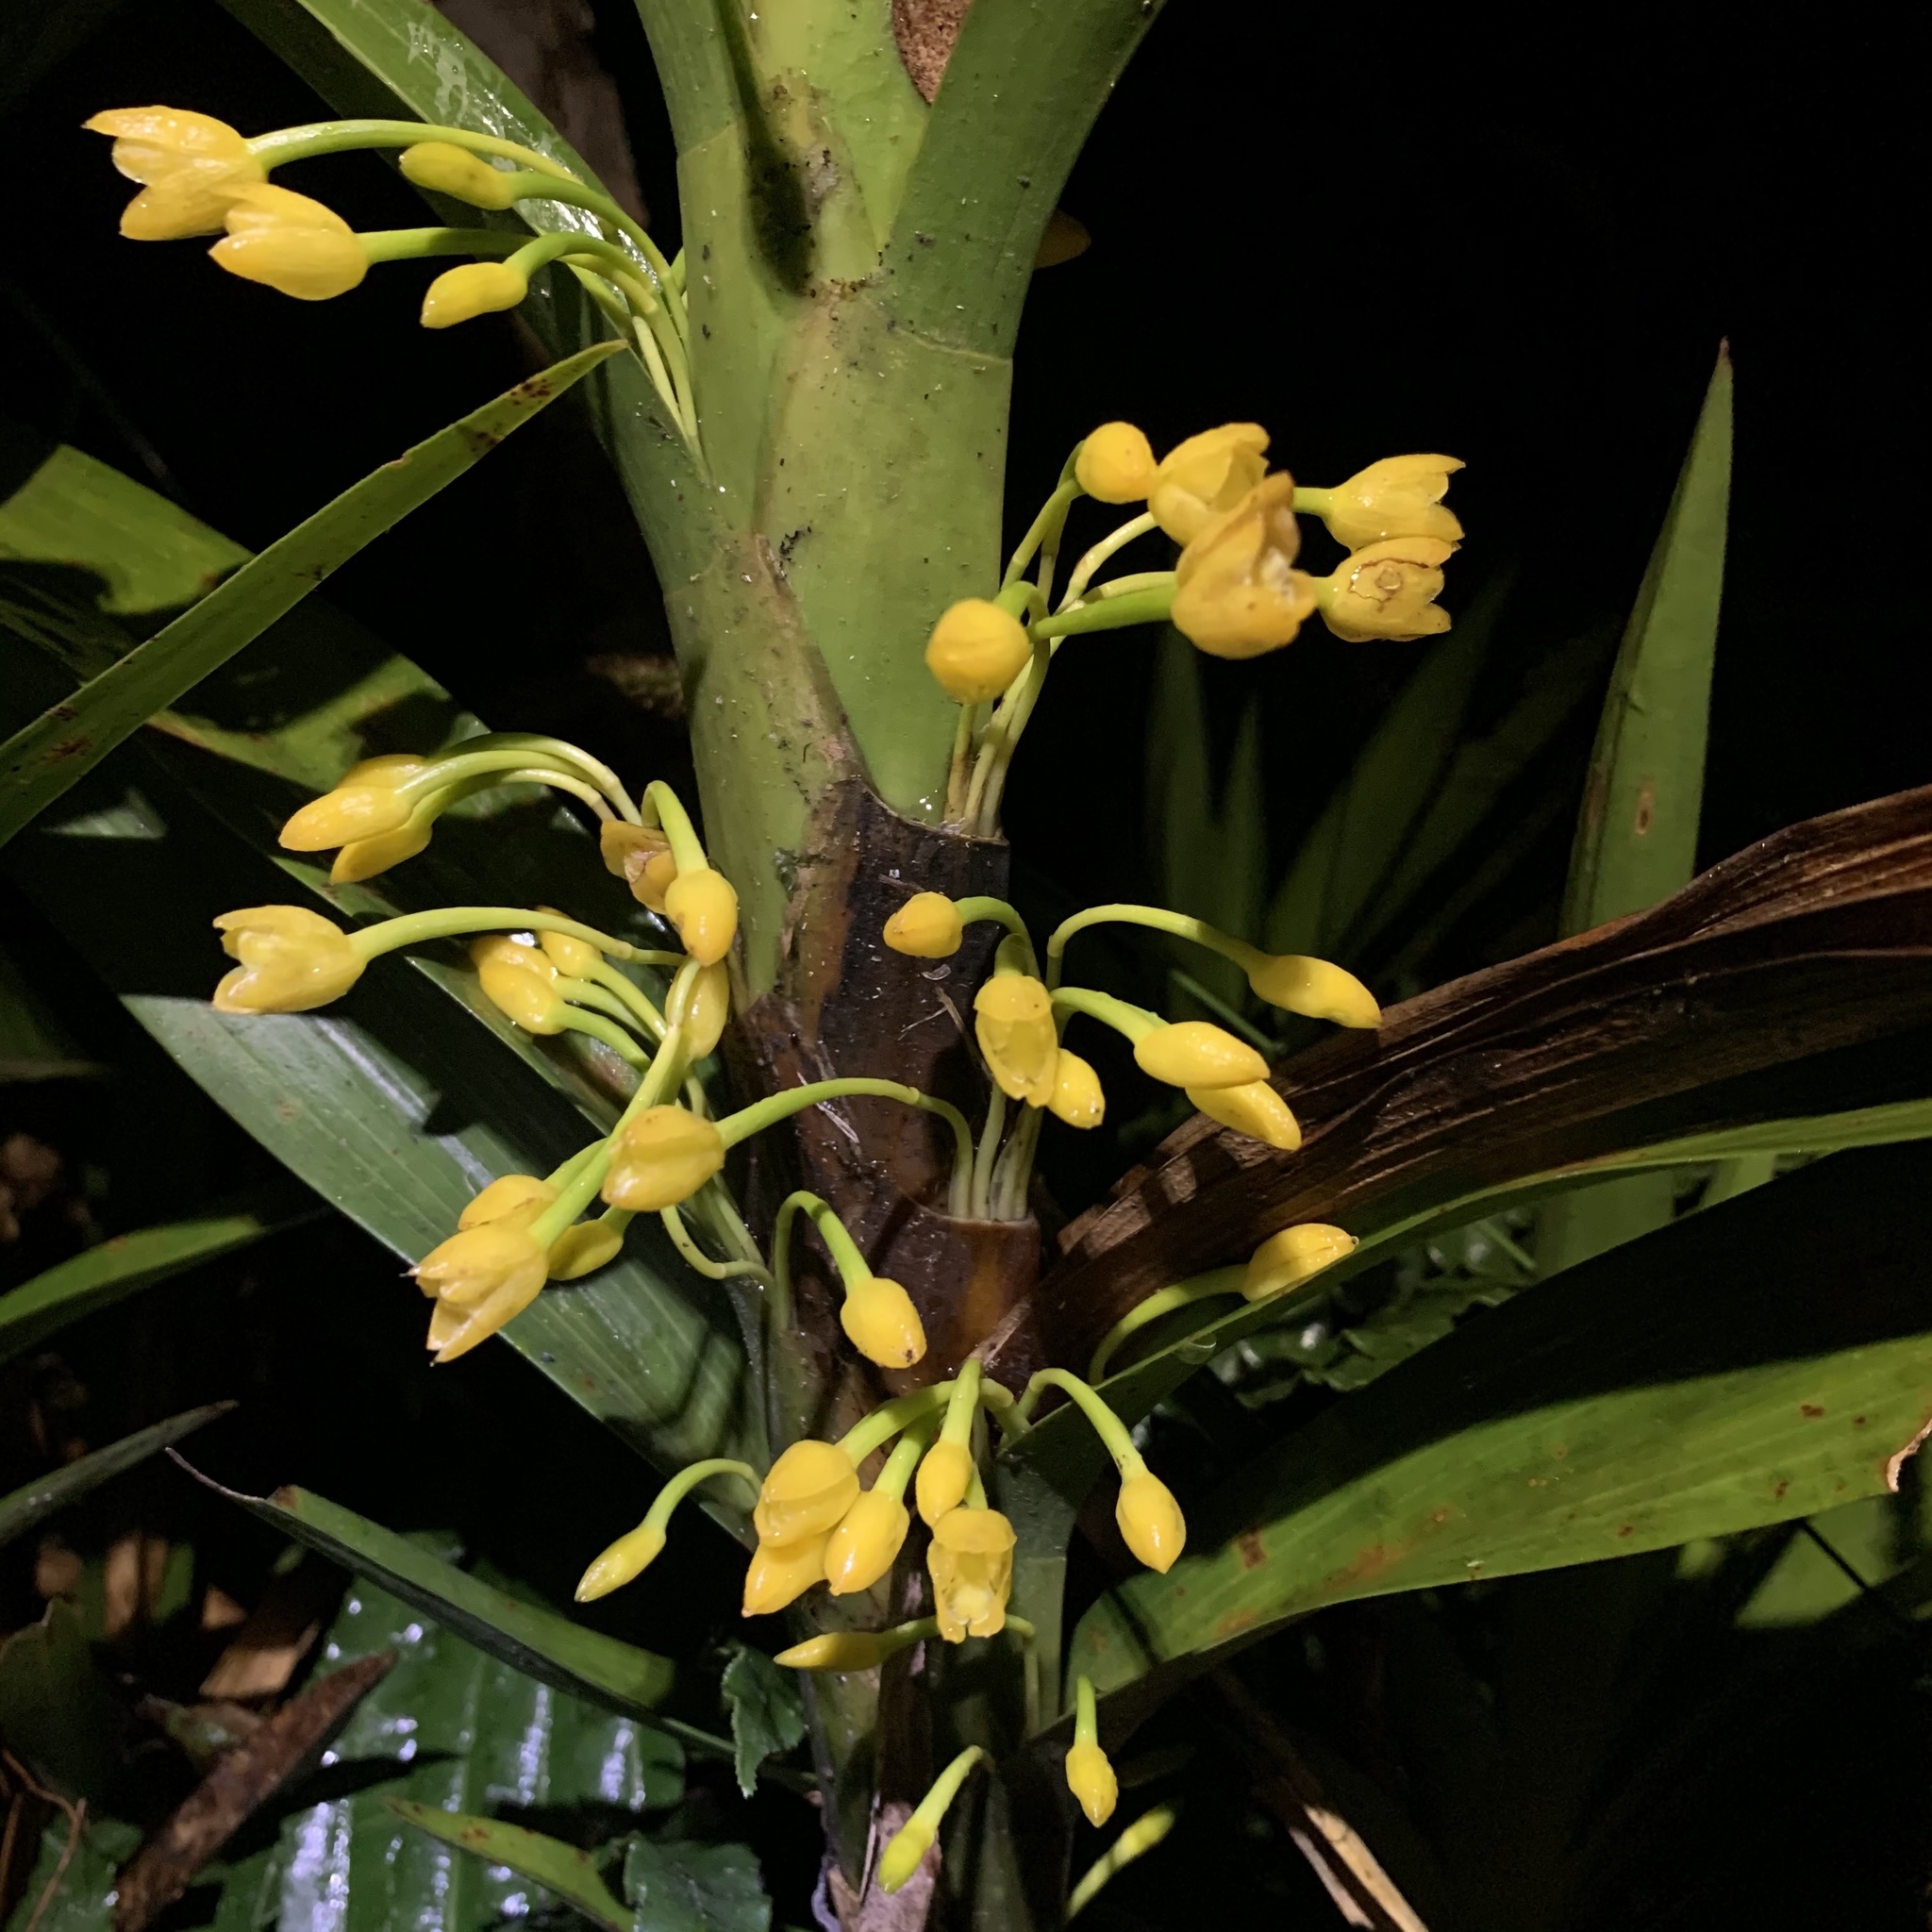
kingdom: Plantae
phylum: Tracheophyta
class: Liliopsida
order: Asparagales
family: Orchidaceae
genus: Maxillaria
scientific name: Maxillaria aurea
